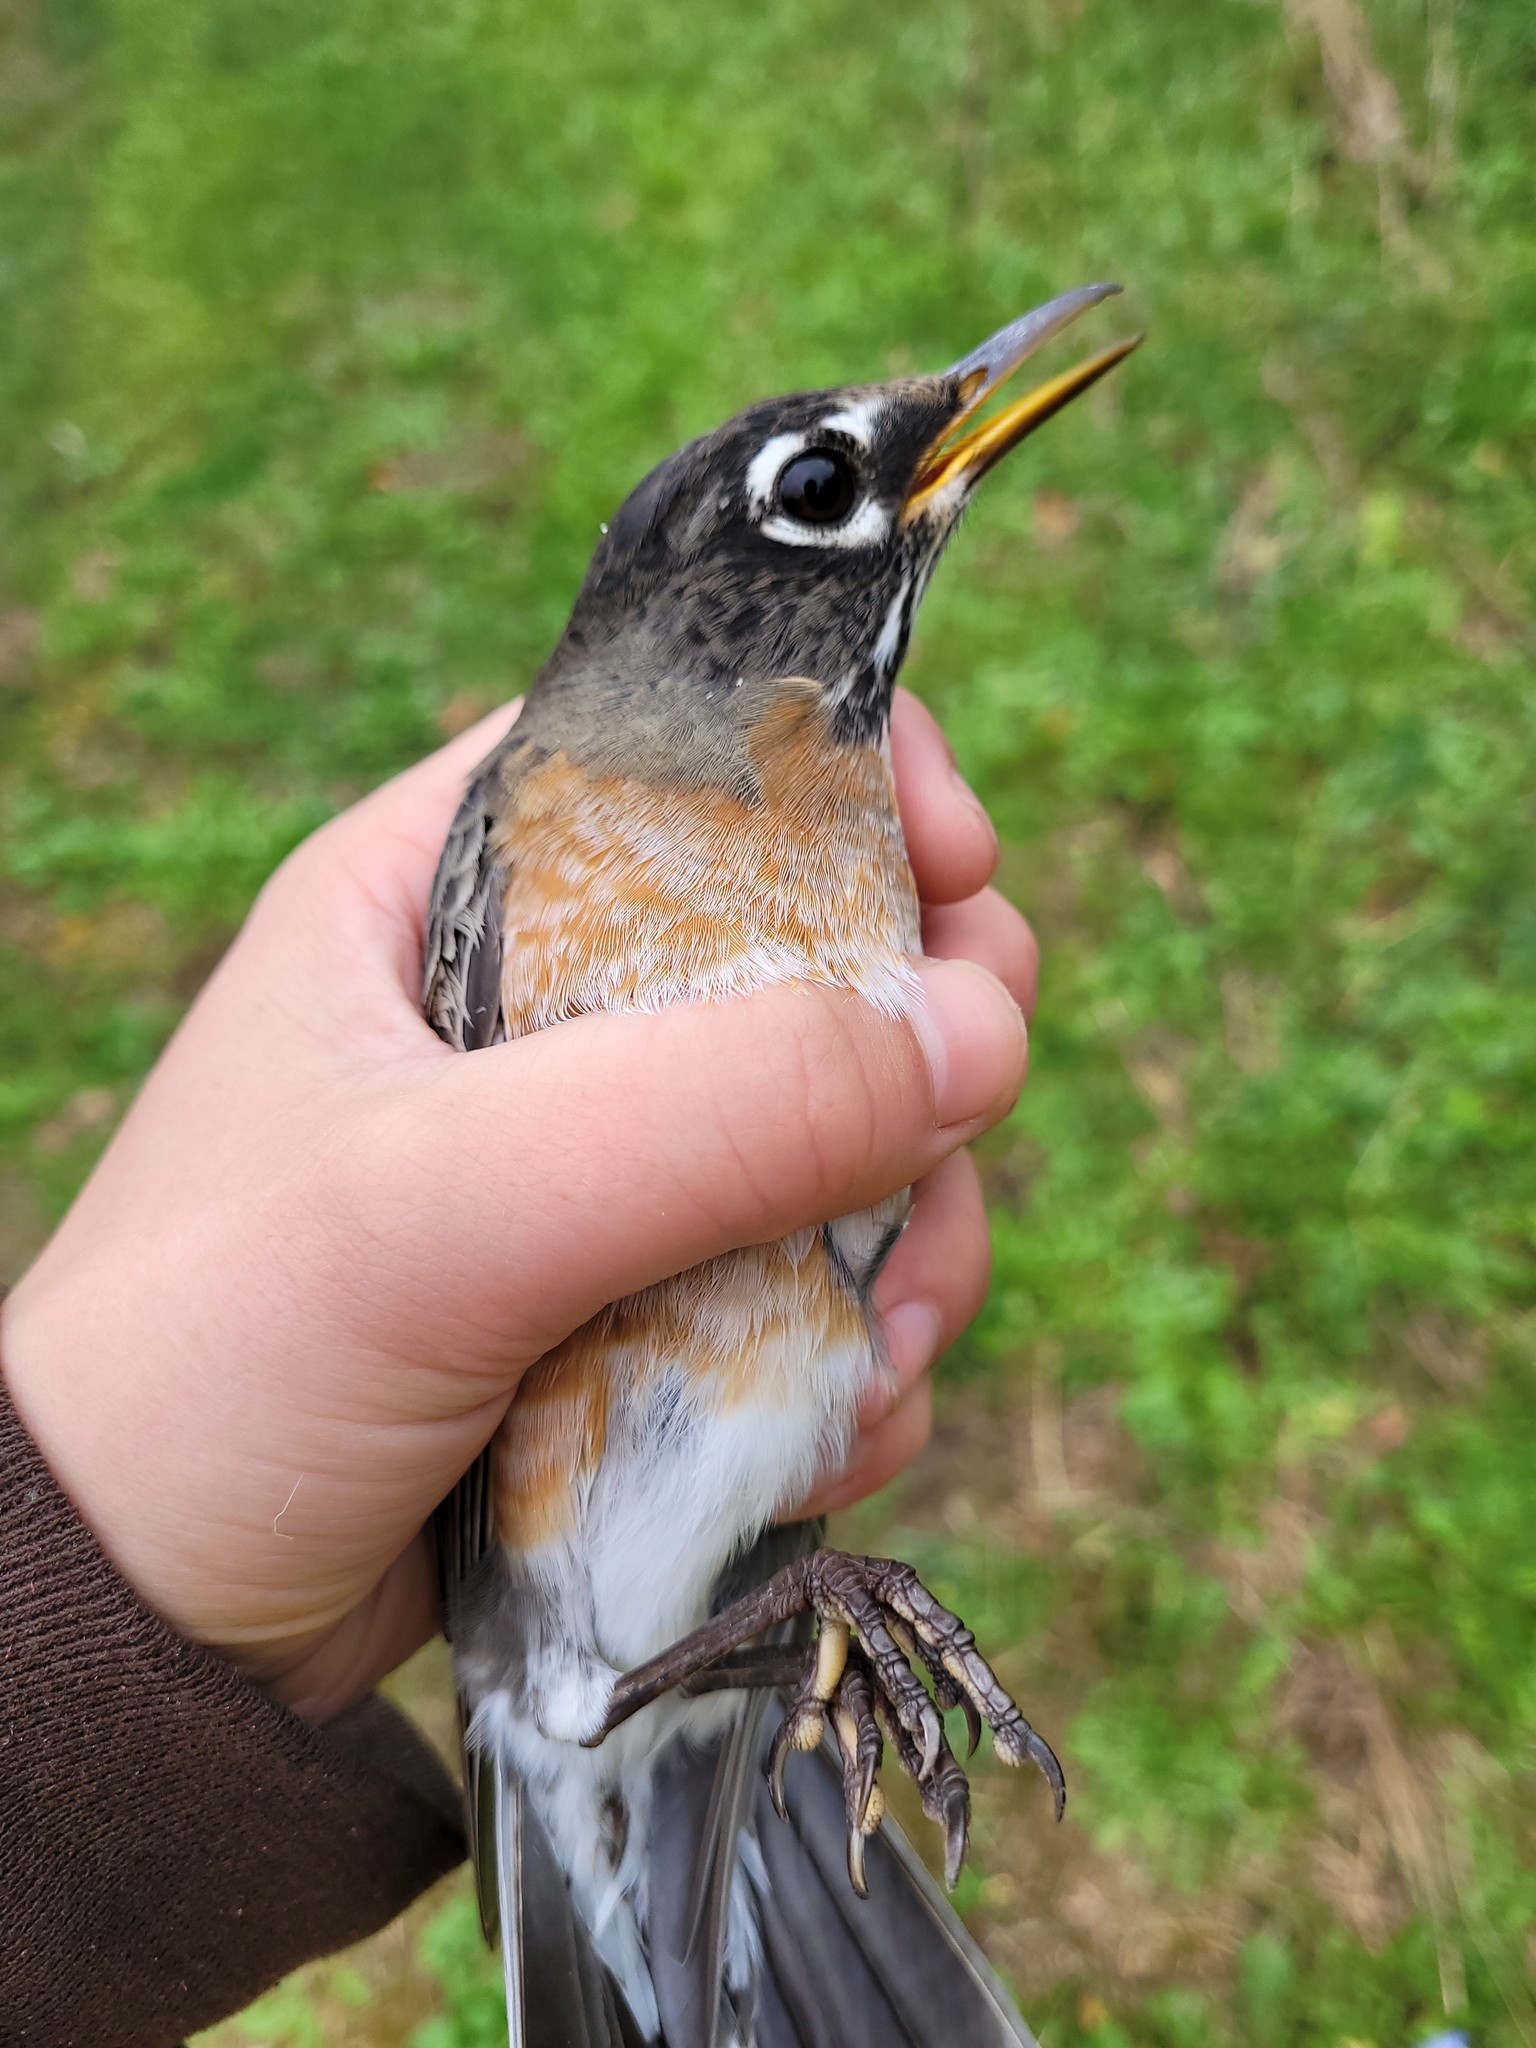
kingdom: Animalia
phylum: Chordata
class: Aves
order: Passeriformes
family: Turdidae
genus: Turdus
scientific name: Turdus migratorius
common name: American robin
